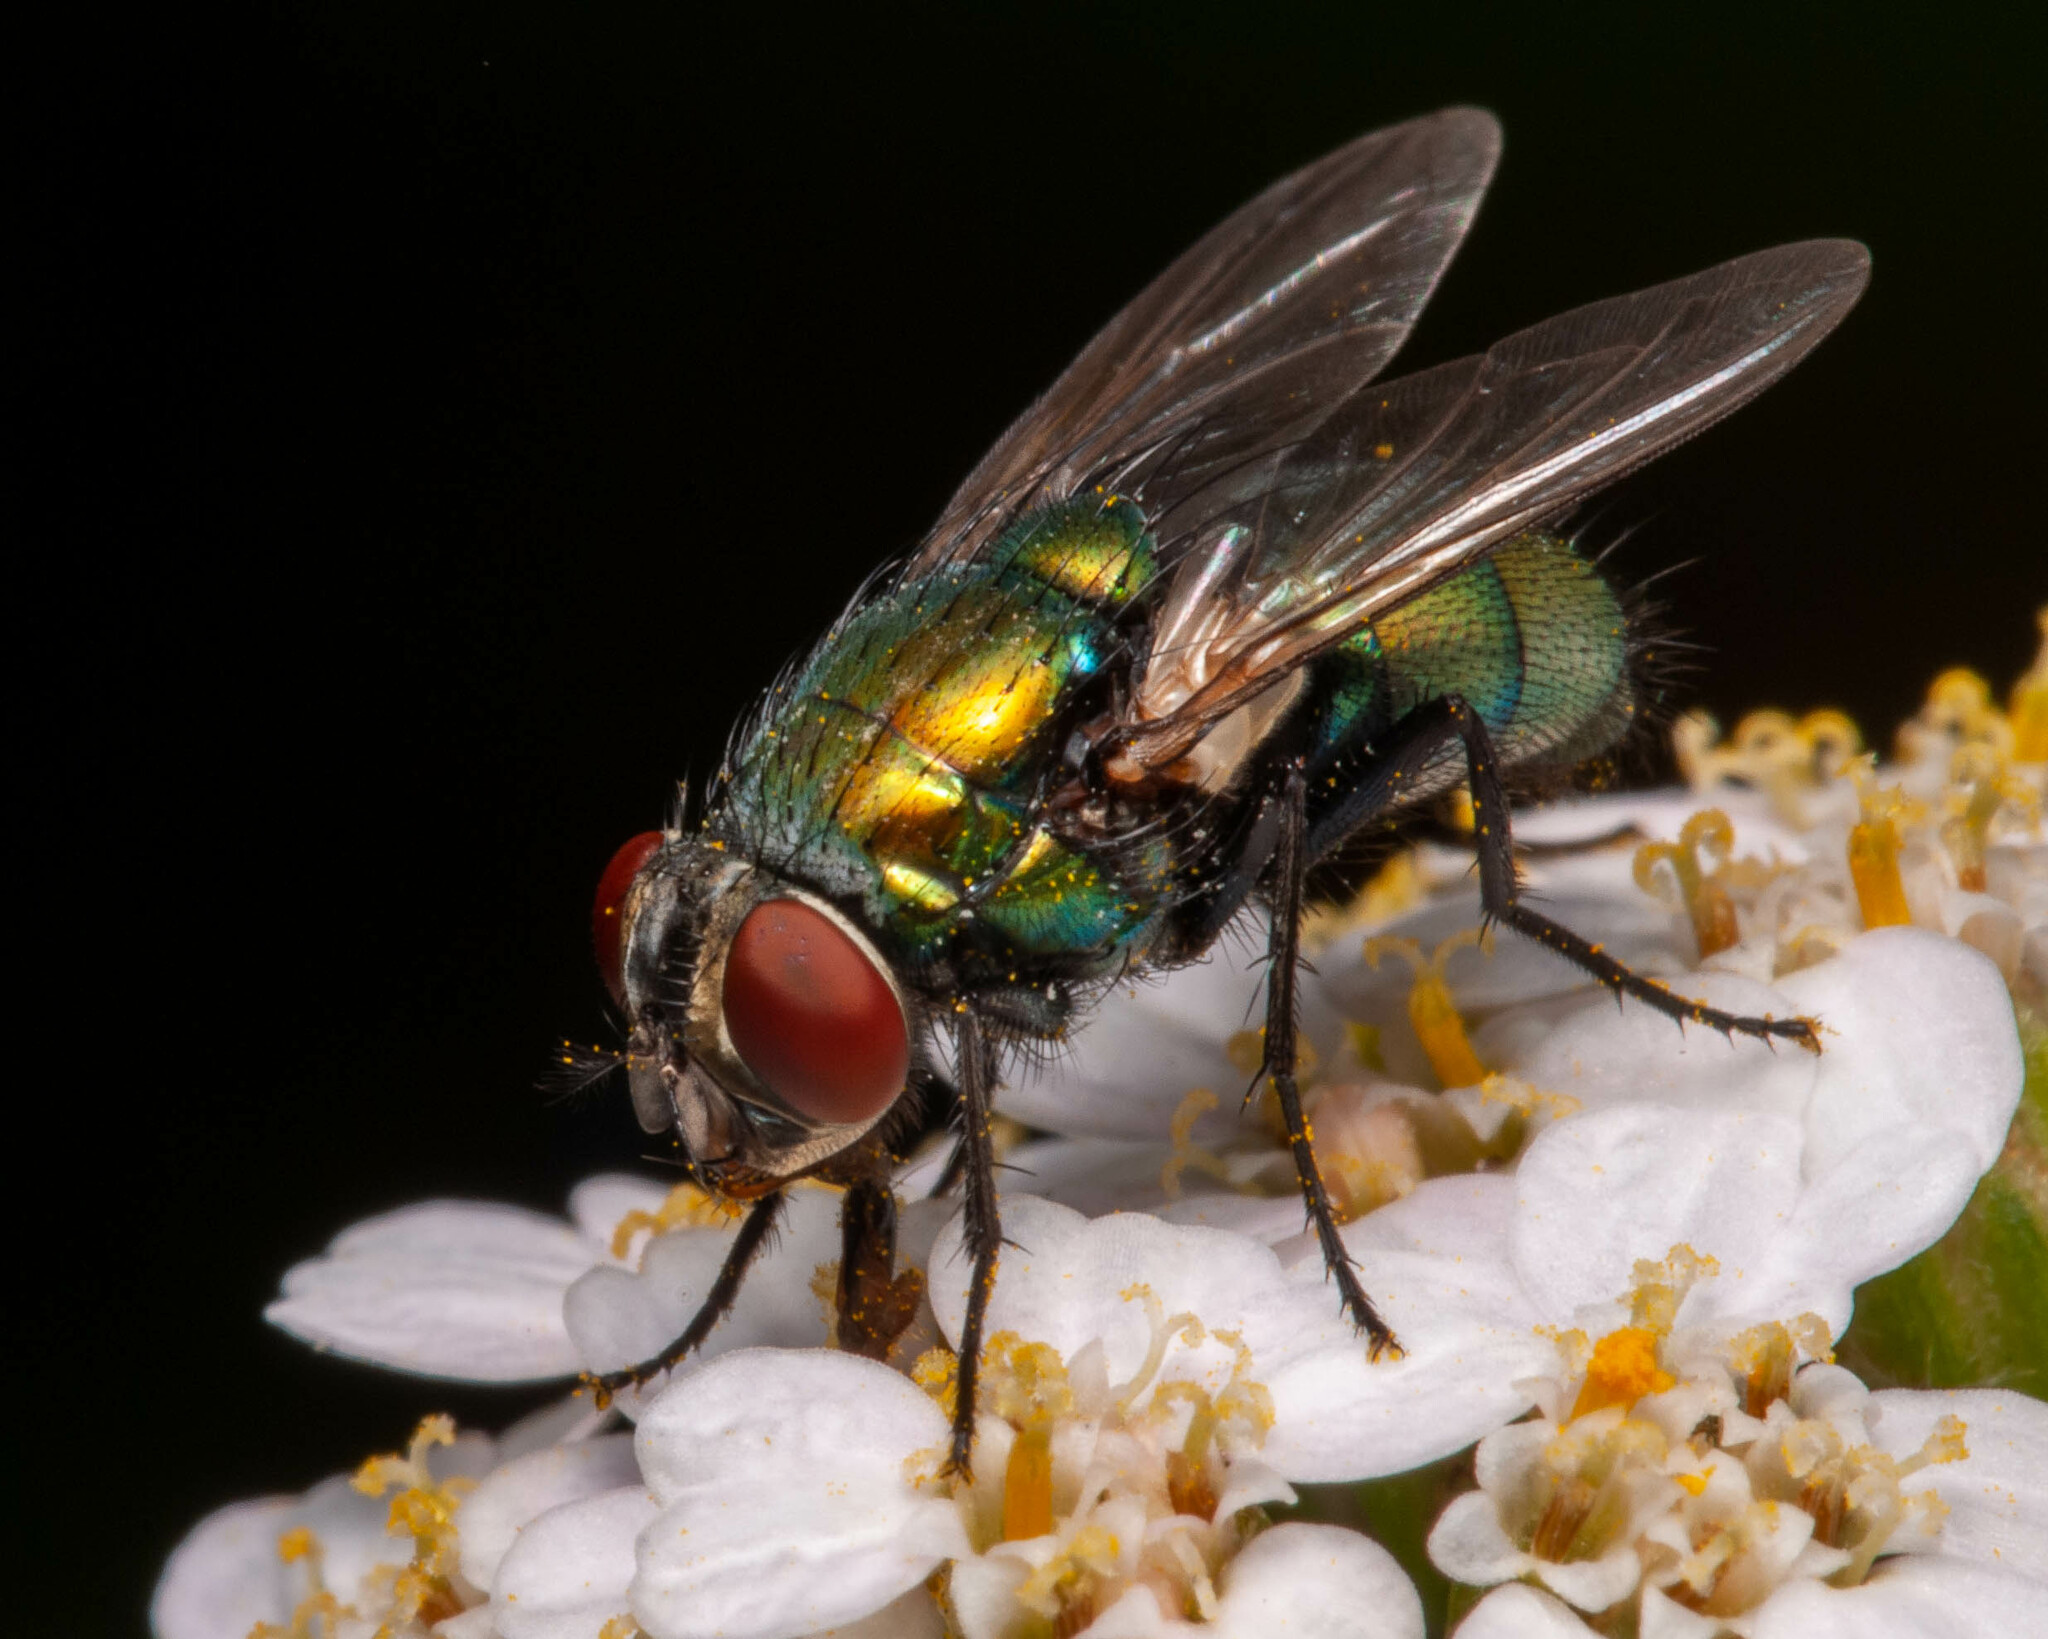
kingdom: Animalia
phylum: Arthropoda
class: Insecta
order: Diptera
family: Calliphoridae
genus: Lucilia
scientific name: Lucilia sericata
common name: Blow fly
